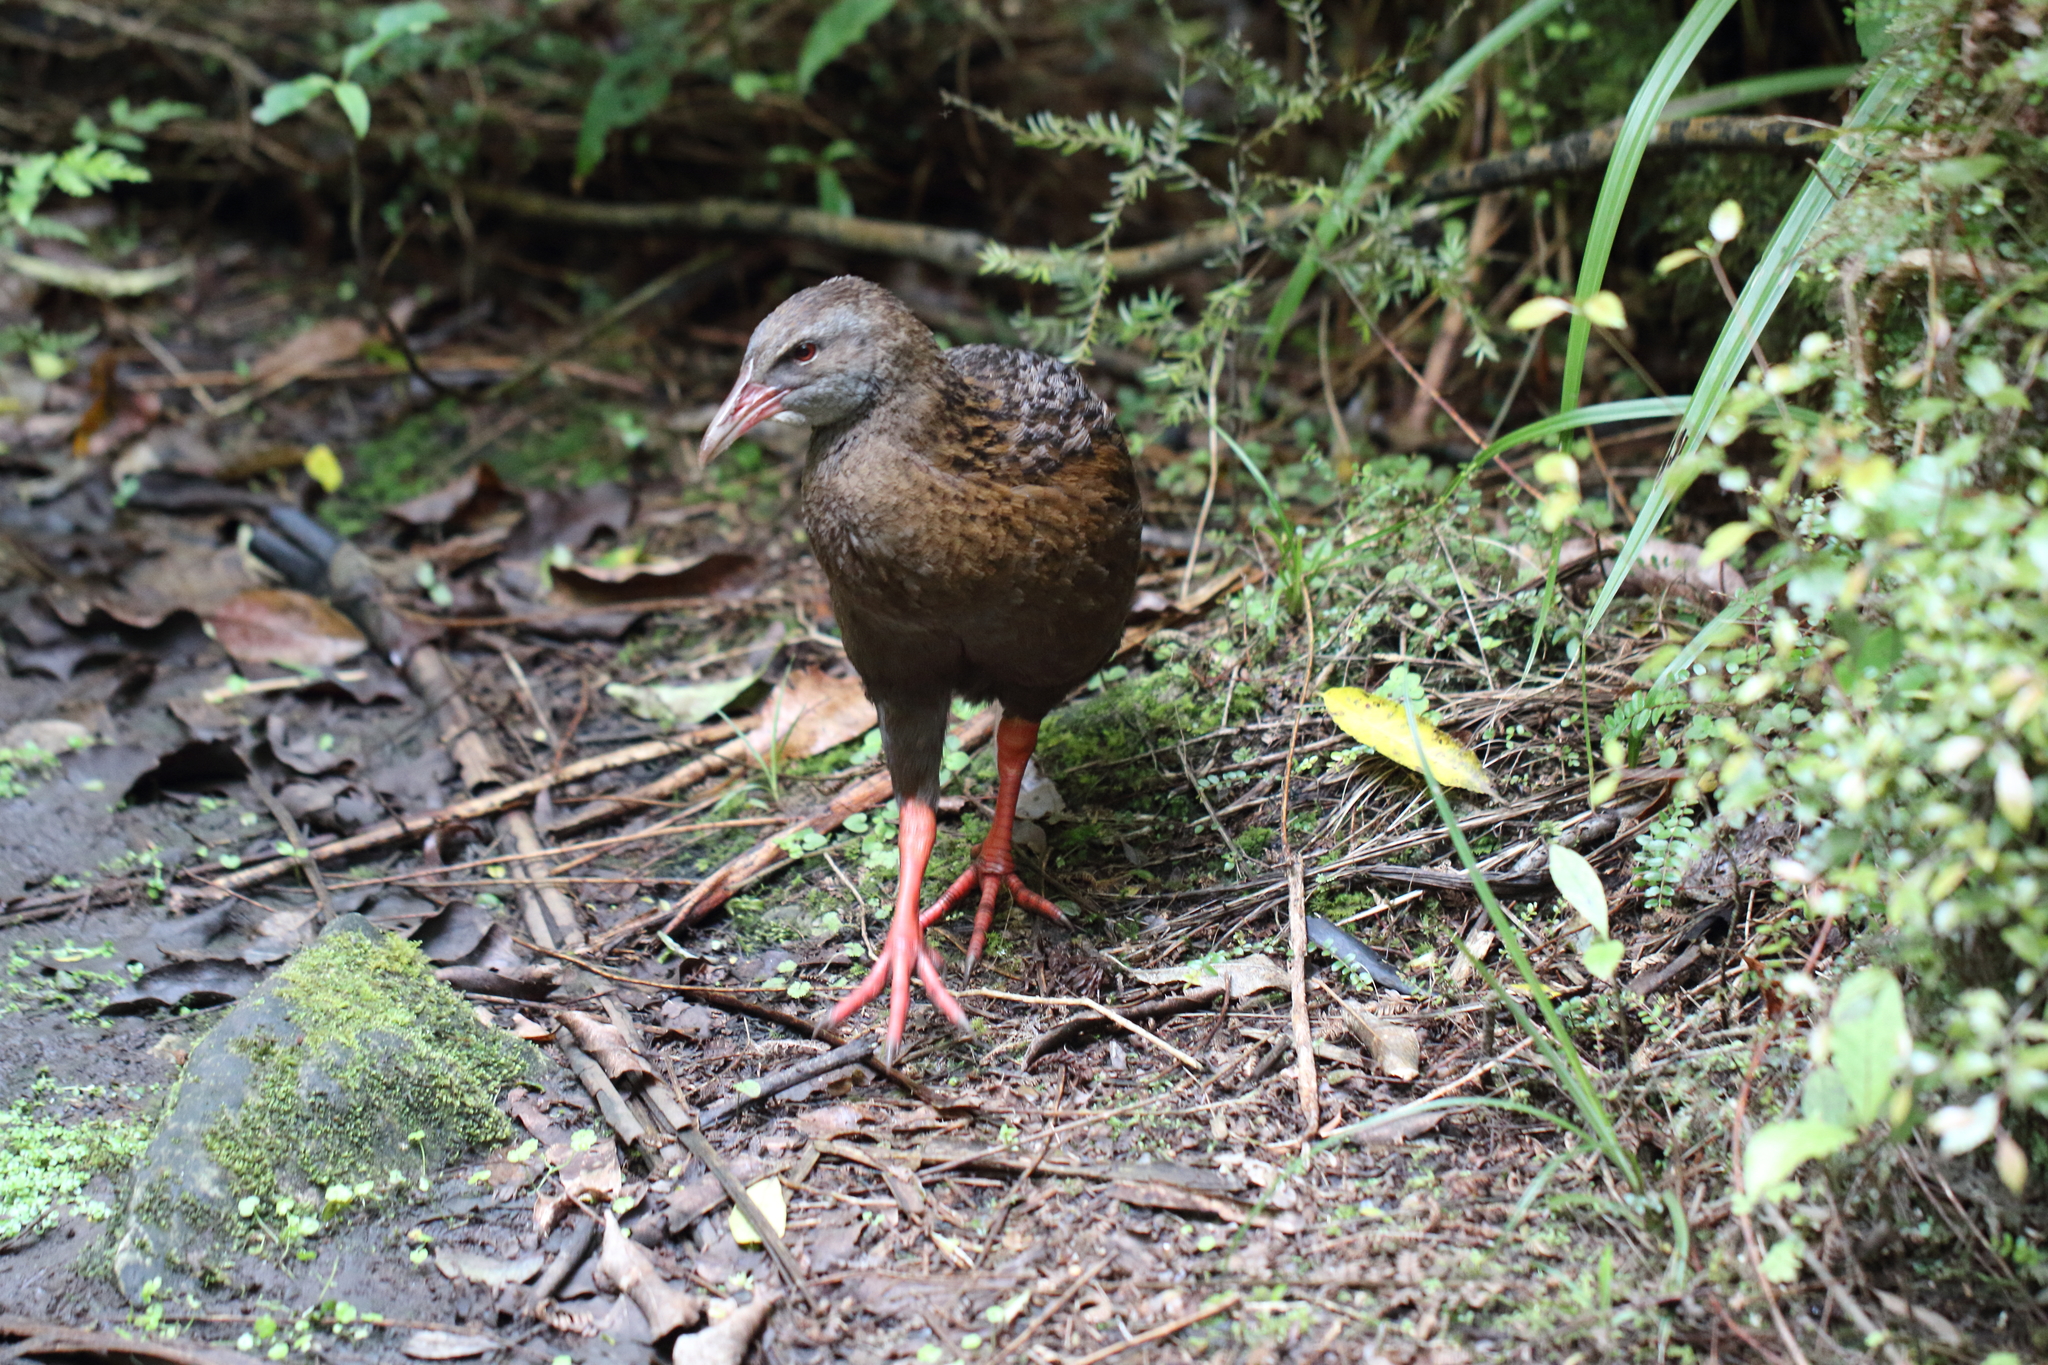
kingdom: Animalia
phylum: Chordata
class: Aves
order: Gruiformes
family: Rallidae
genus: Gallirallus
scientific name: Gallirallus australis
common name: Weka
